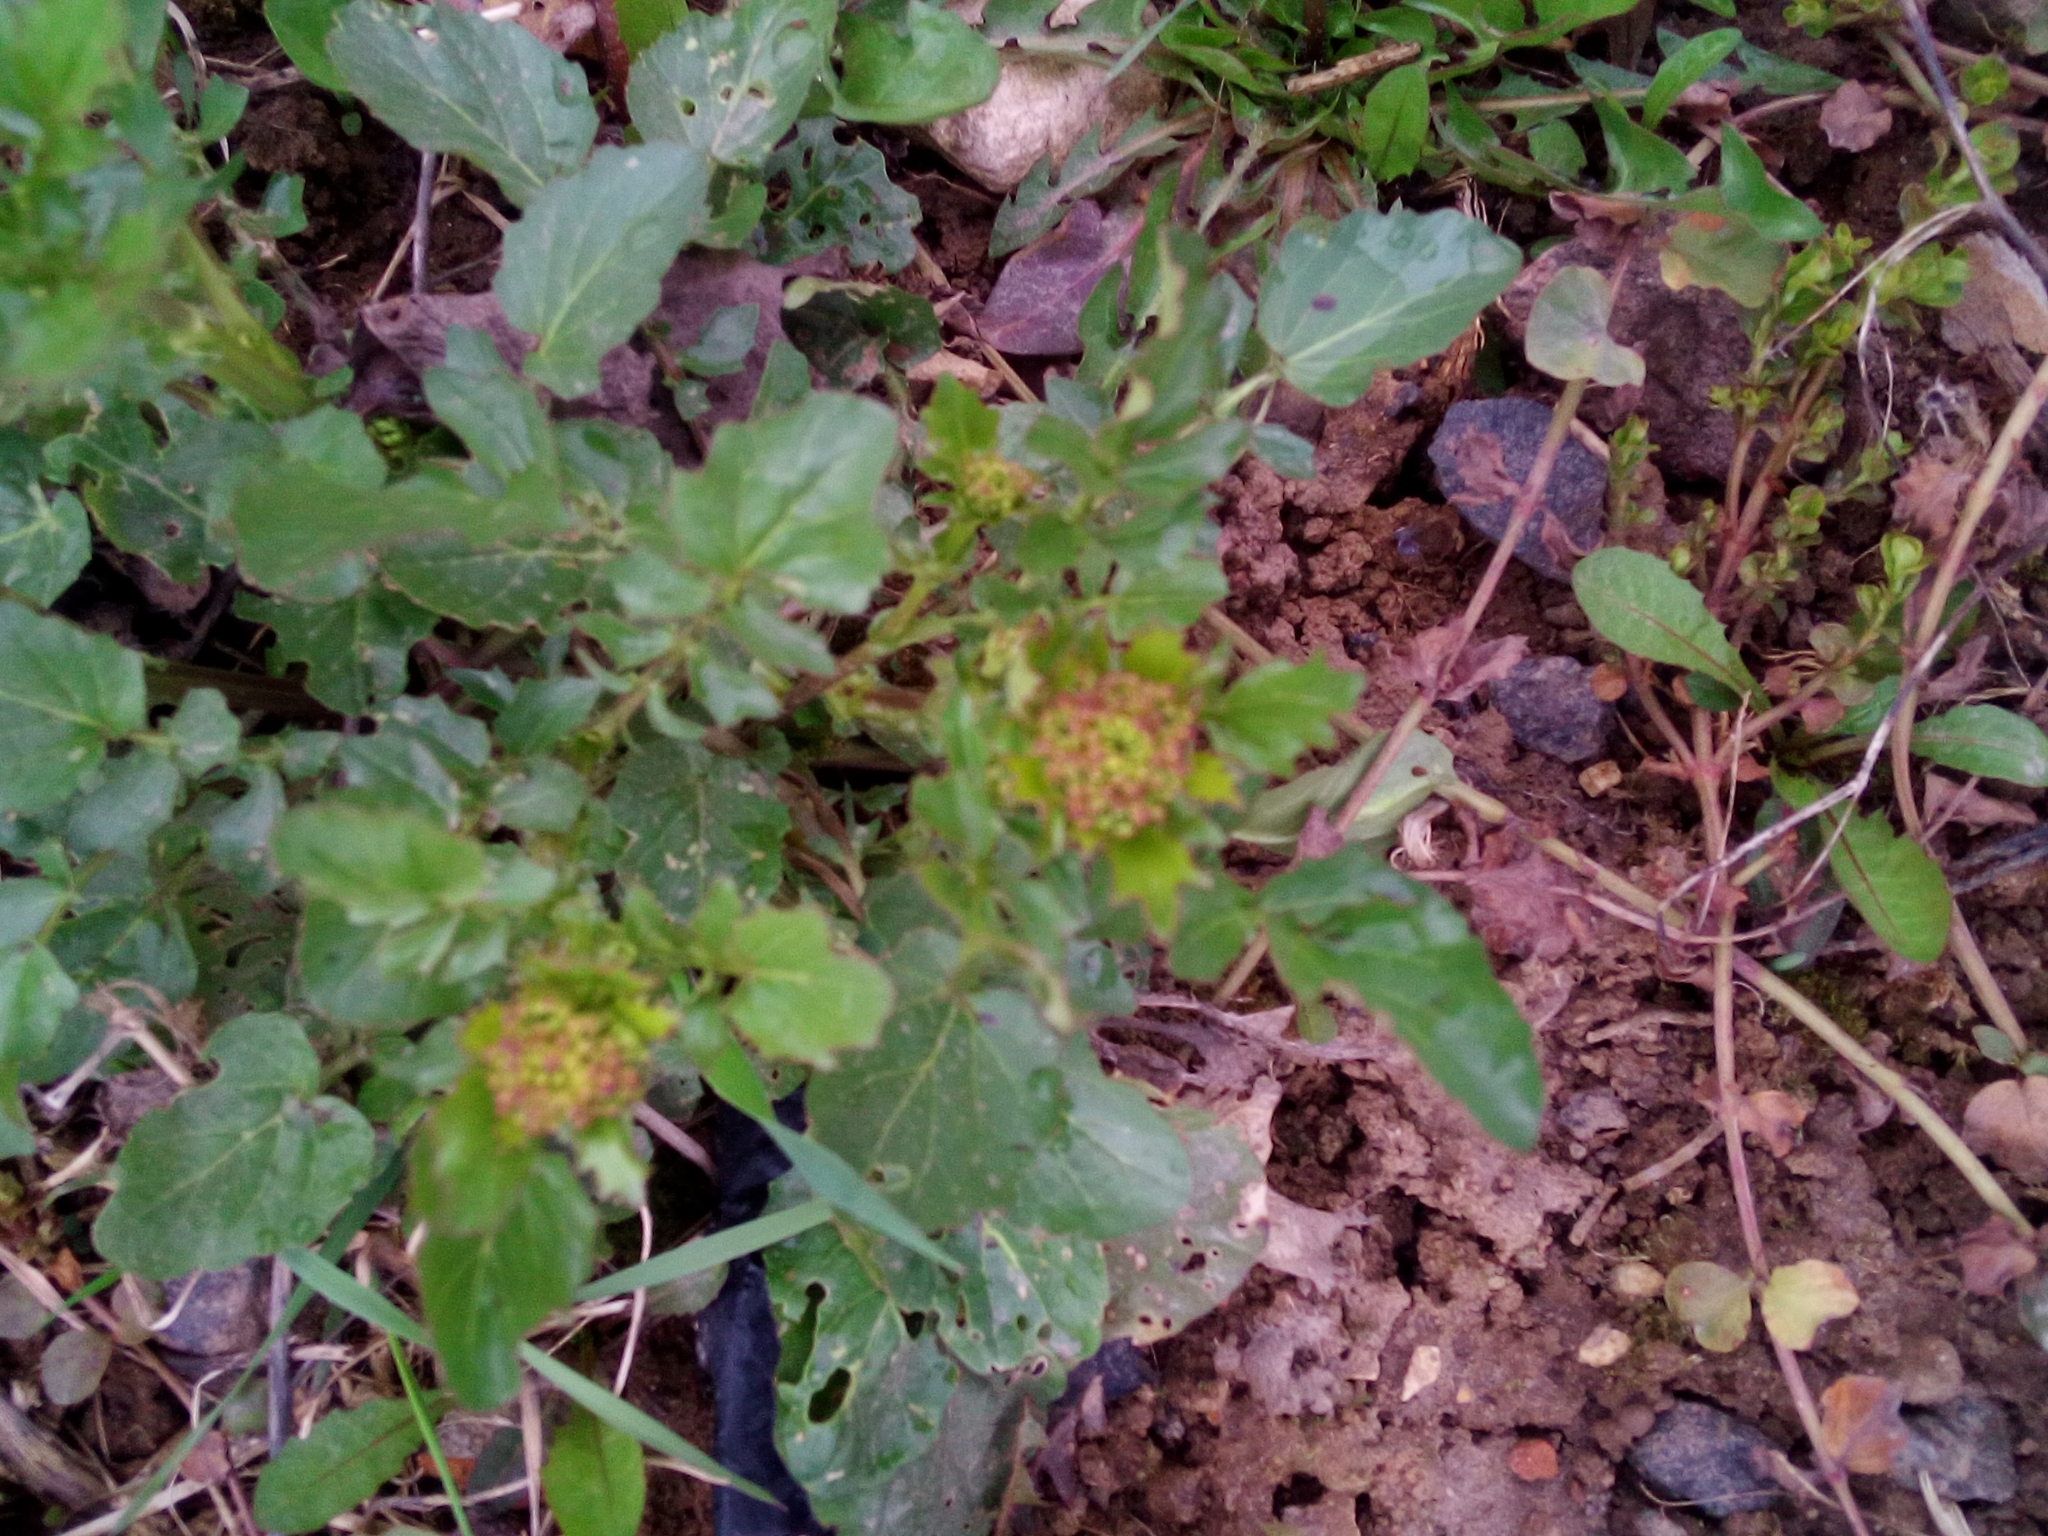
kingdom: Plantae
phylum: Tracheophyta
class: Magnoliopsida
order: Brassicales
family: Brassicaceae
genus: Barbarea
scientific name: Barbarea vulgaris
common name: Cressy-greens
